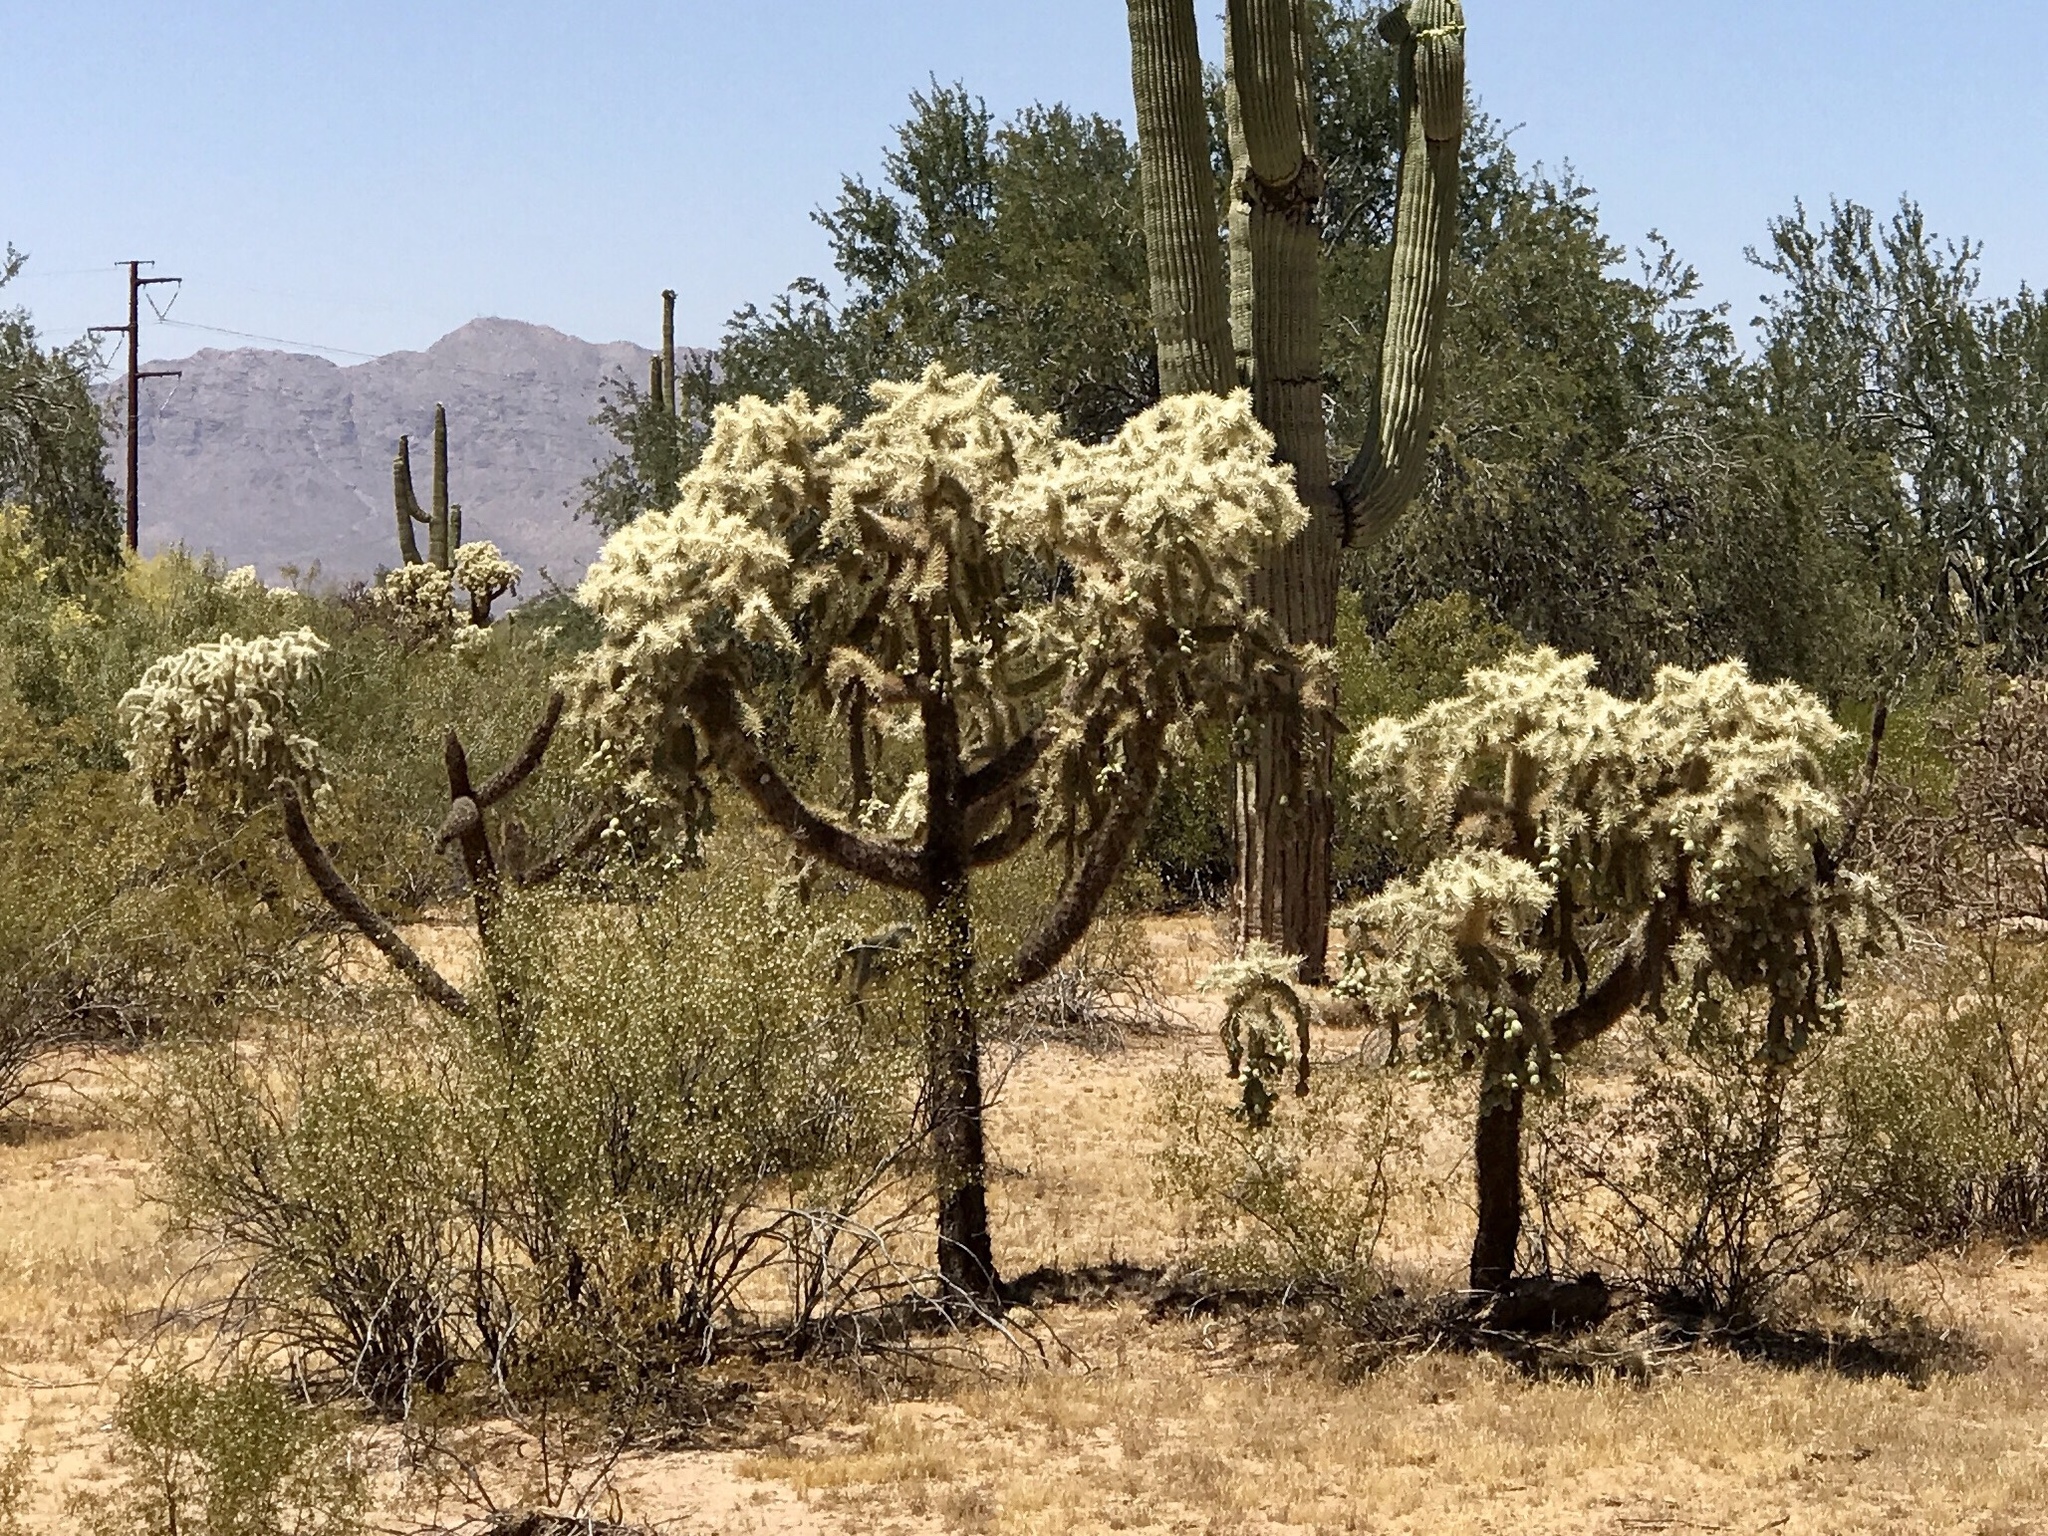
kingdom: Plantae
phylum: Tracheophyta
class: Magnoliopsida
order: Caryophyllales
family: Cactaceae
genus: Cylindropuntia
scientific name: Cylindropuntia fulgida
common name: Jumping cholla
